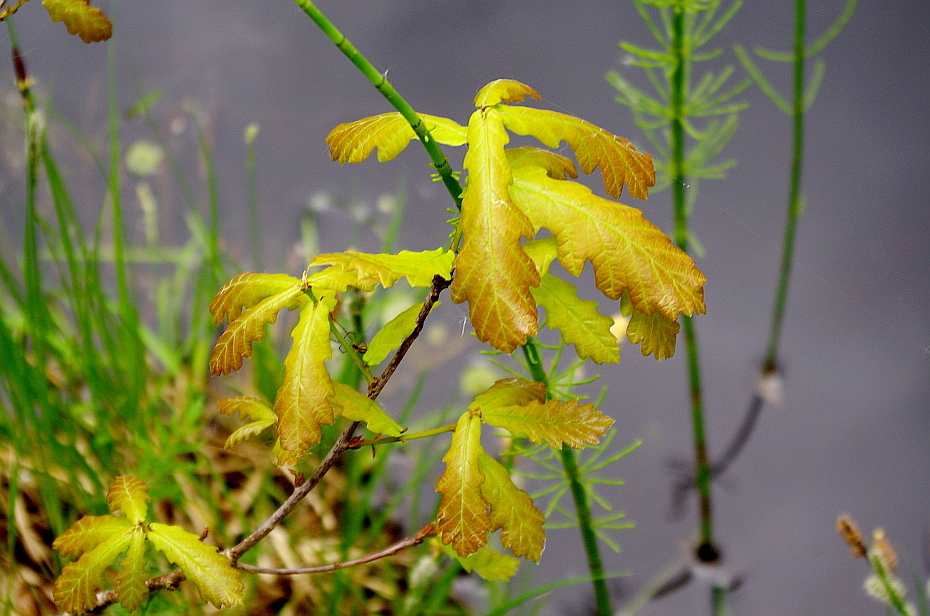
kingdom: Plantae
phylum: Tracheophyta
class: Magnoliopsida
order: Fagales
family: Fagaceae
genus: Quercus
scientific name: Quercus robur
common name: Pedunculate oak
